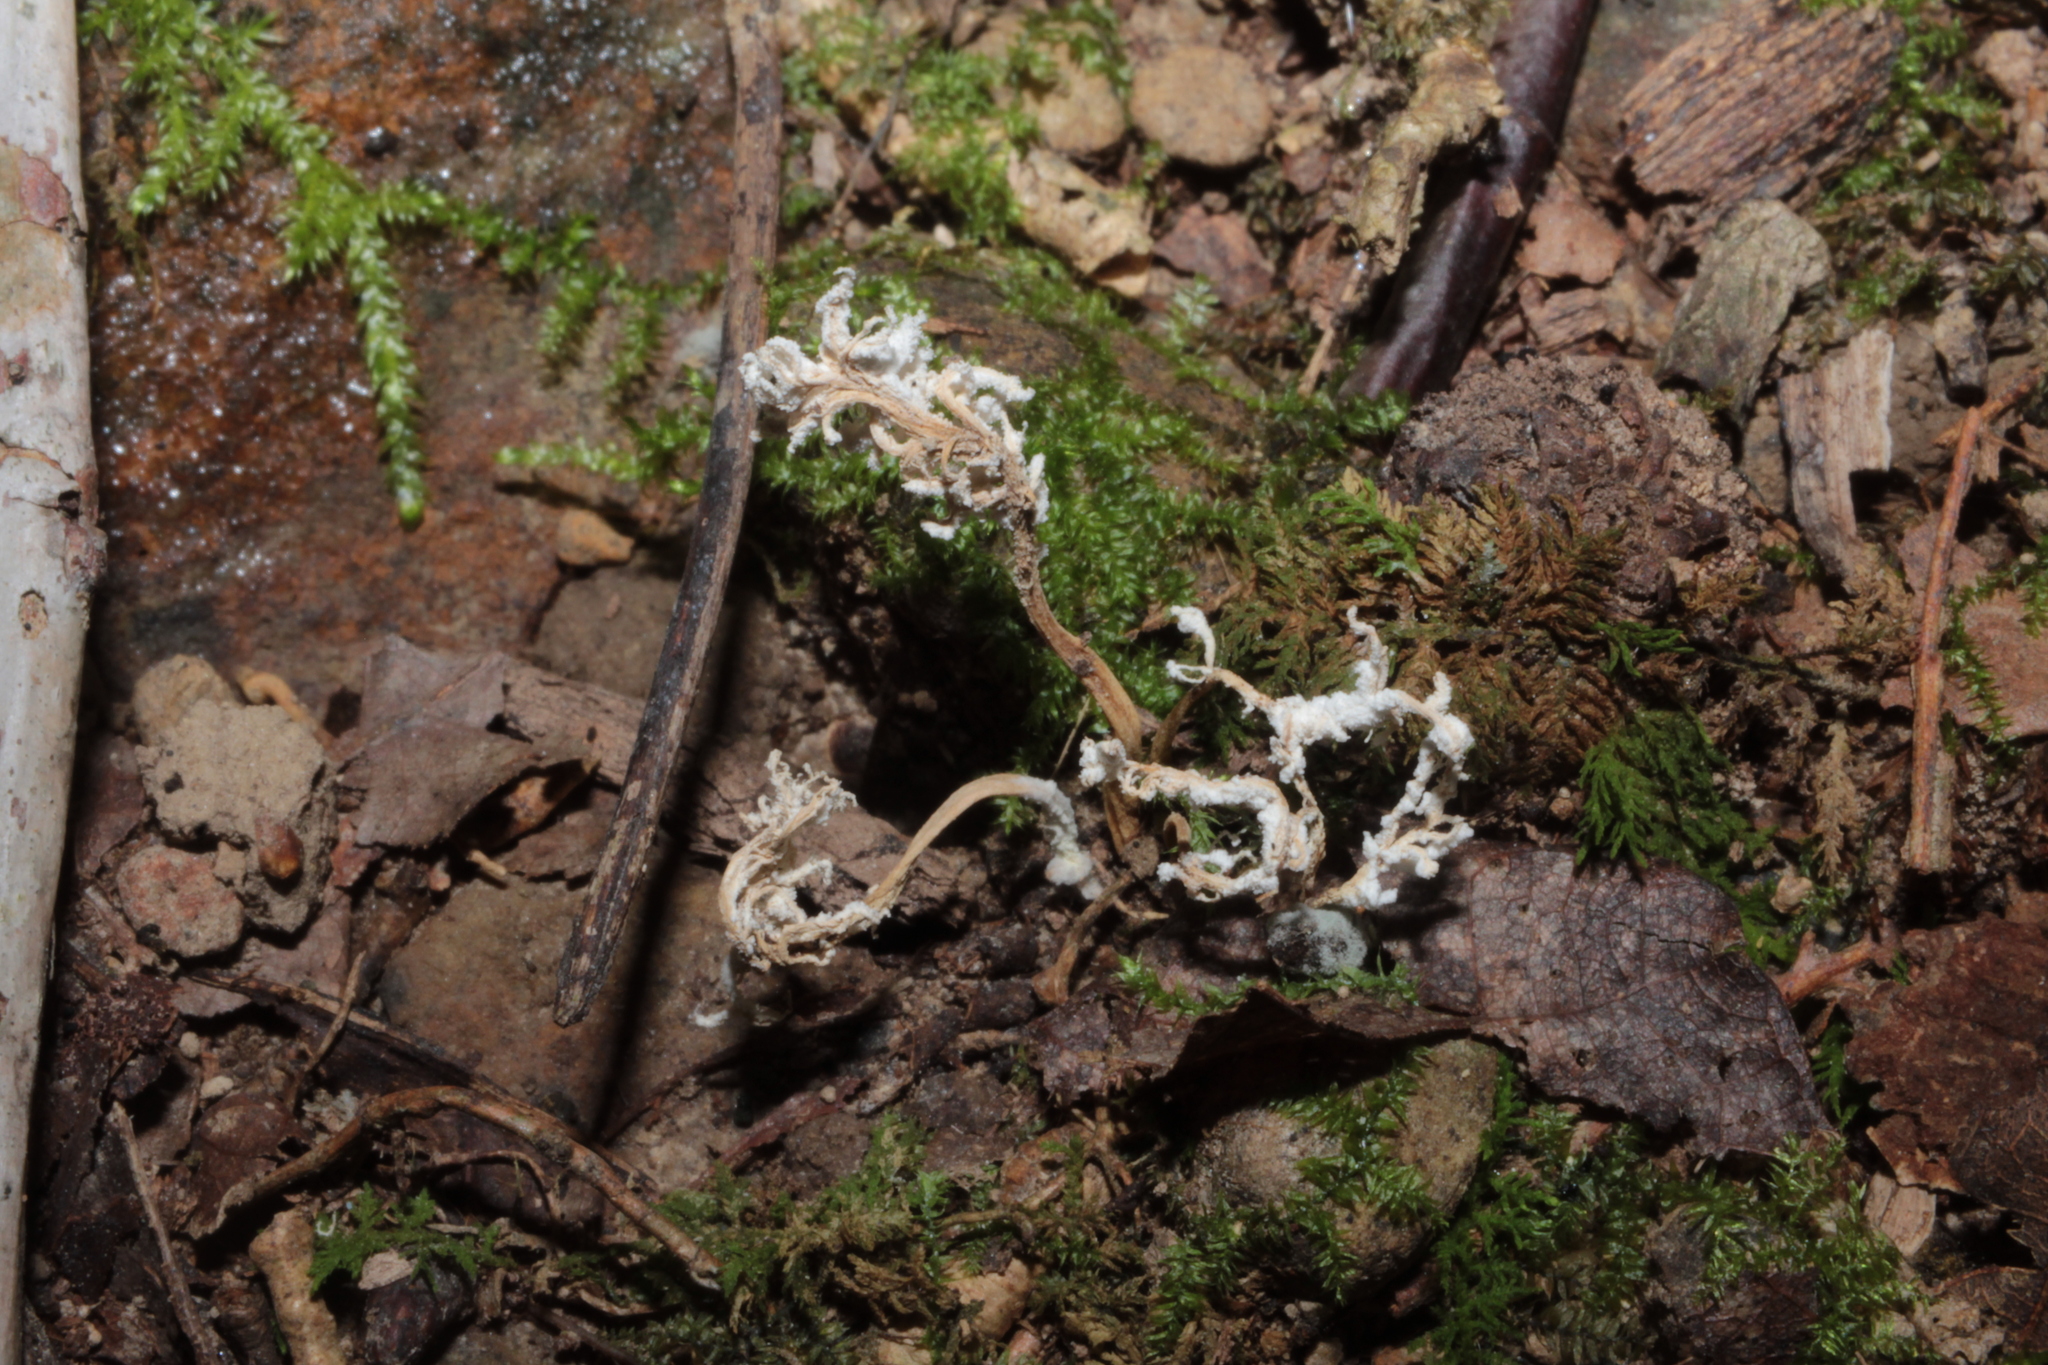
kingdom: Fungi
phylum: Ascomycota
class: Sordariomycetes
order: Hypocreales
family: Cordycipitaceae
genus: Cordyceps
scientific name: Cordyceps tenuipes
